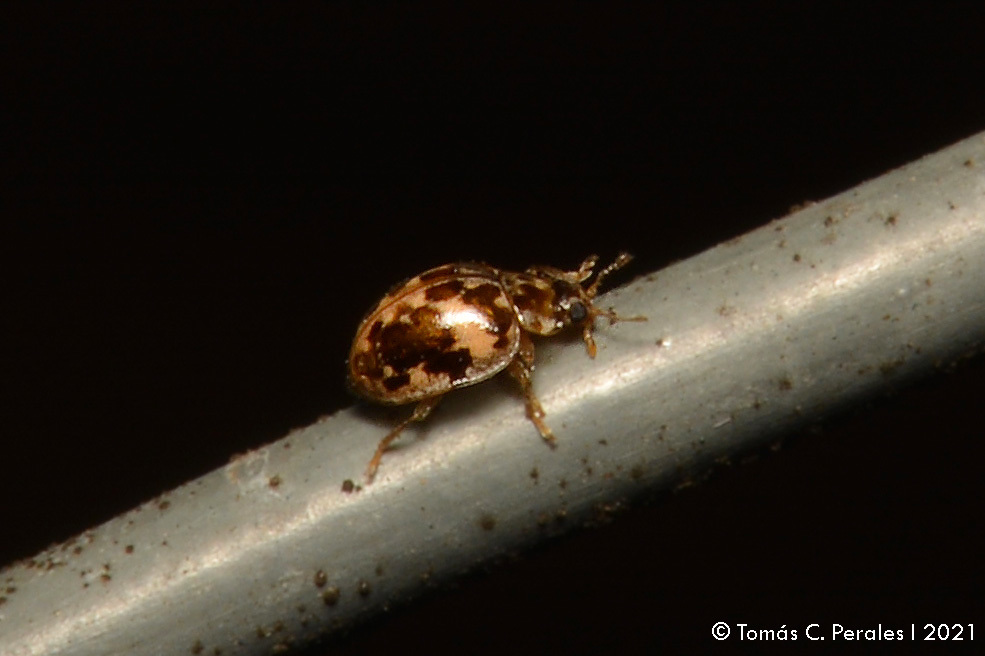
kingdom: Animalia
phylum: Arthropoda
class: Insecta
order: Coleoptera
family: Coccinellidae
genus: Psyllobora
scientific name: Psyllobora
